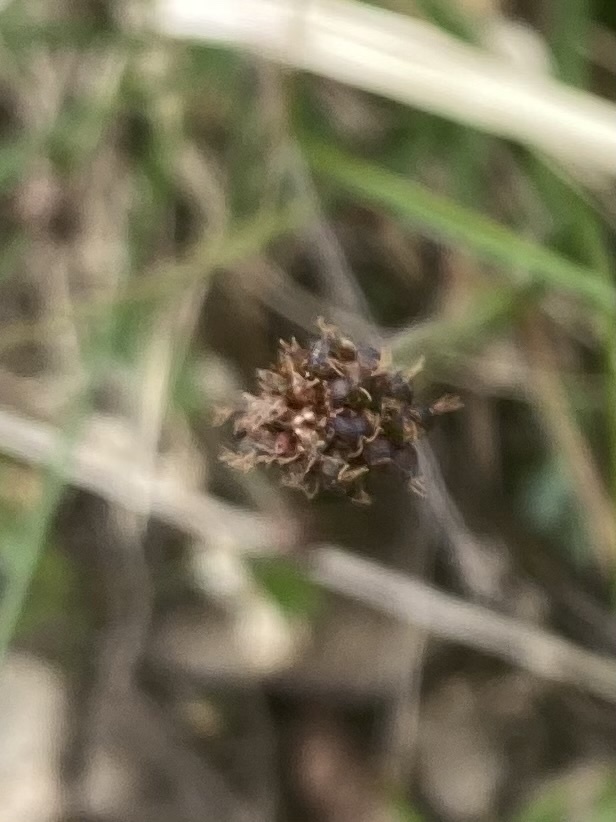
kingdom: Plantae
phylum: Tracheophyta
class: Liliopsida
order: Poales
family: Juncaceae
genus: Luzula
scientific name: Luzula nivalis
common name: Arctic woodrush
